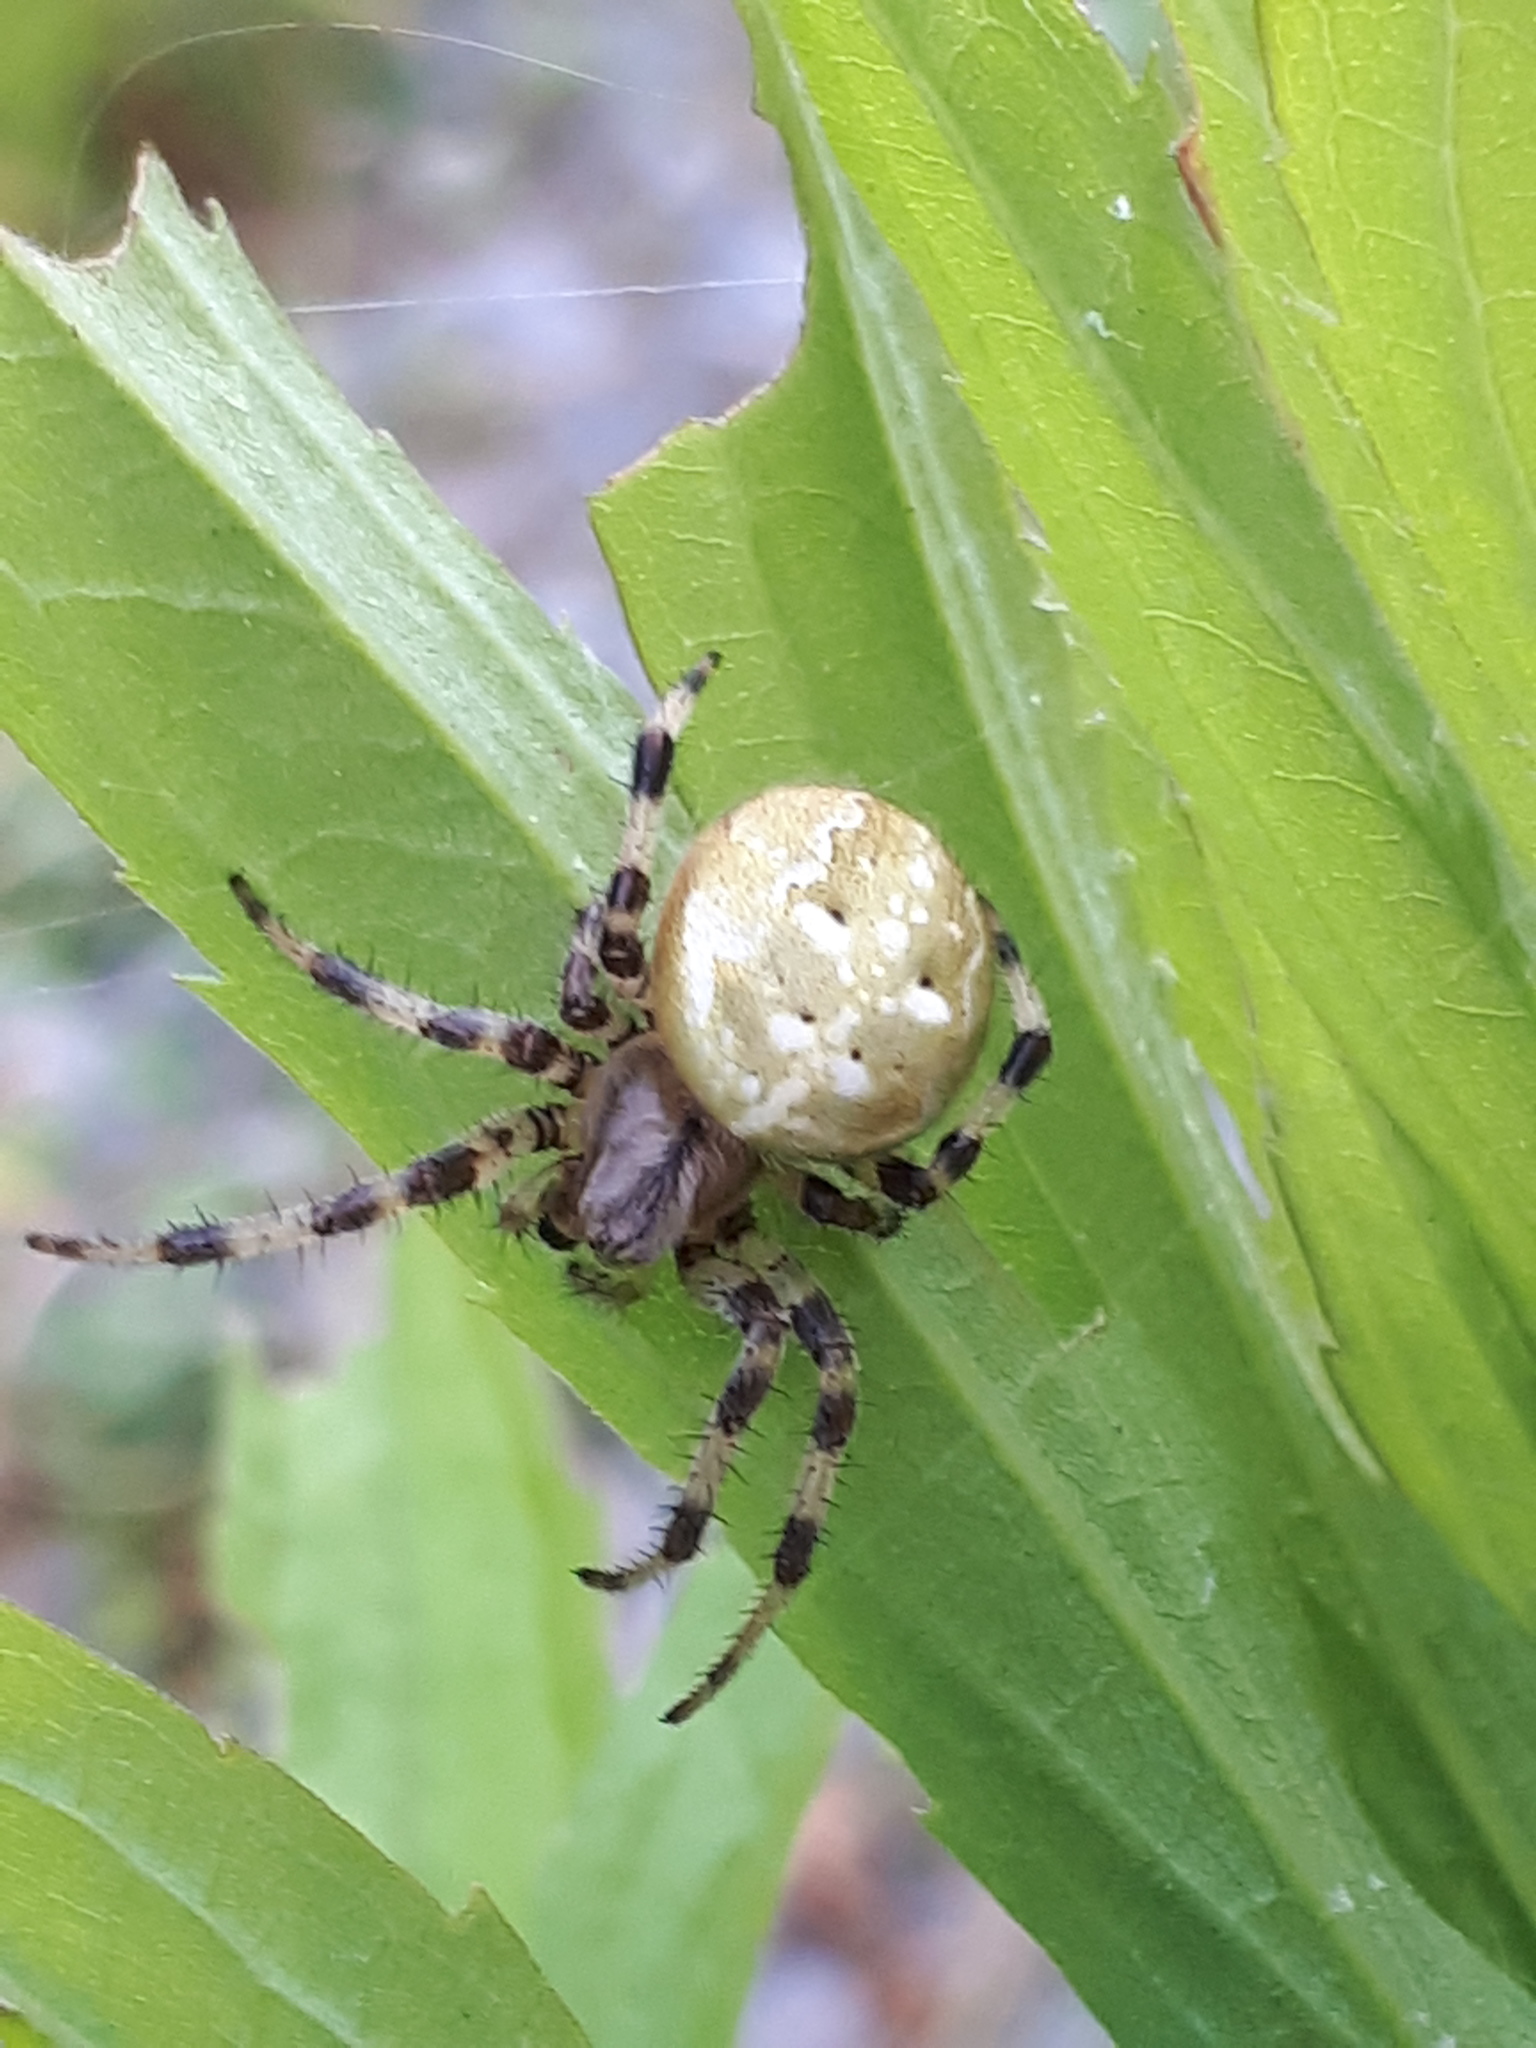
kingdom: Animalia
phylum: Arthropoda
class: Arachnida
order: Araneae
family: Araneidae
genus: Araneus
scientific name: Araneus quadratus
